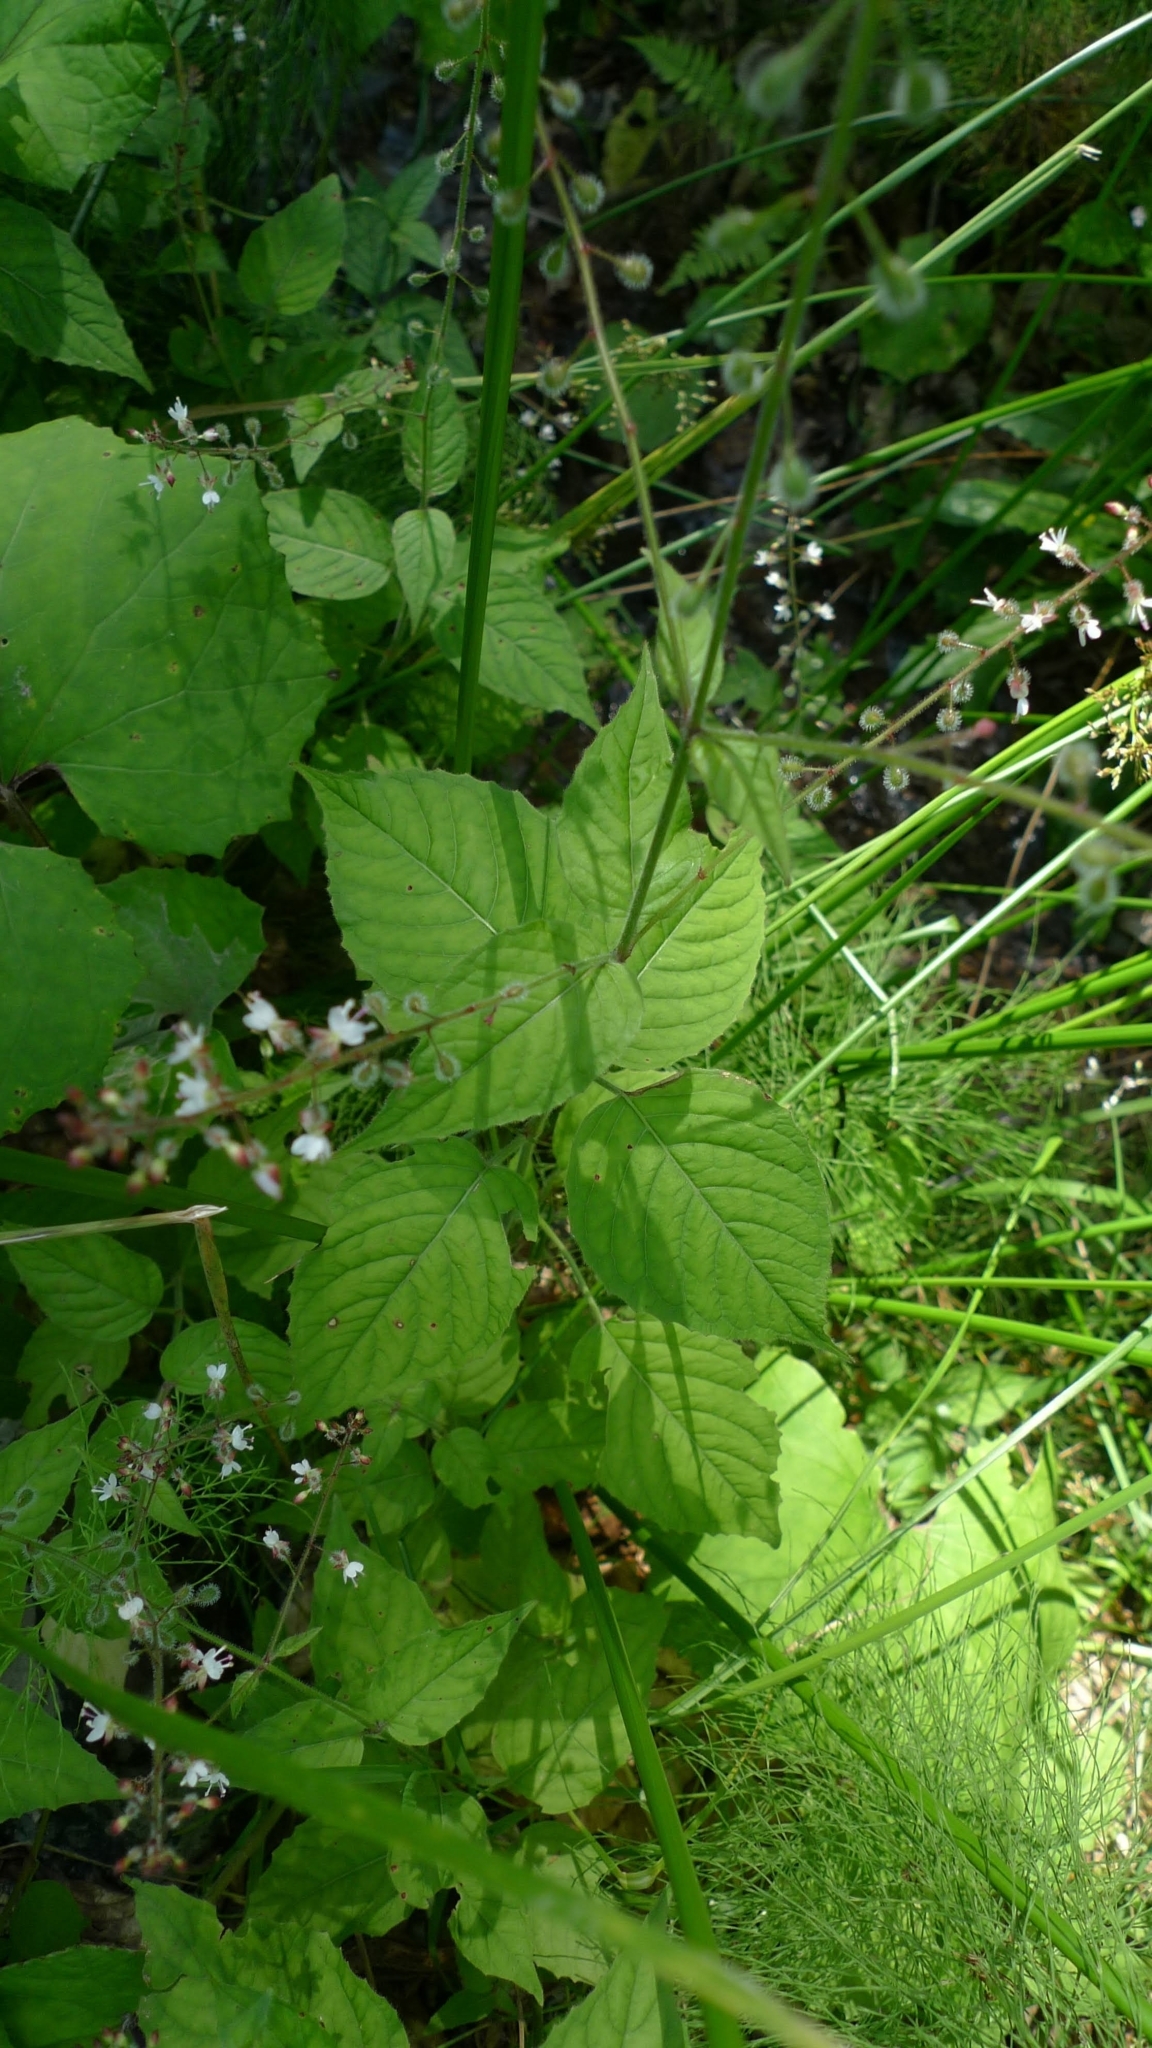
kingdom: Plantae
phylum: Tracheophyta
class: Magnoliopsida
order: Myrtales
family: Onagraceae
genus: Circaea
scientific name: Circaea lutetiana
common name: Enchanter's-nightshade
